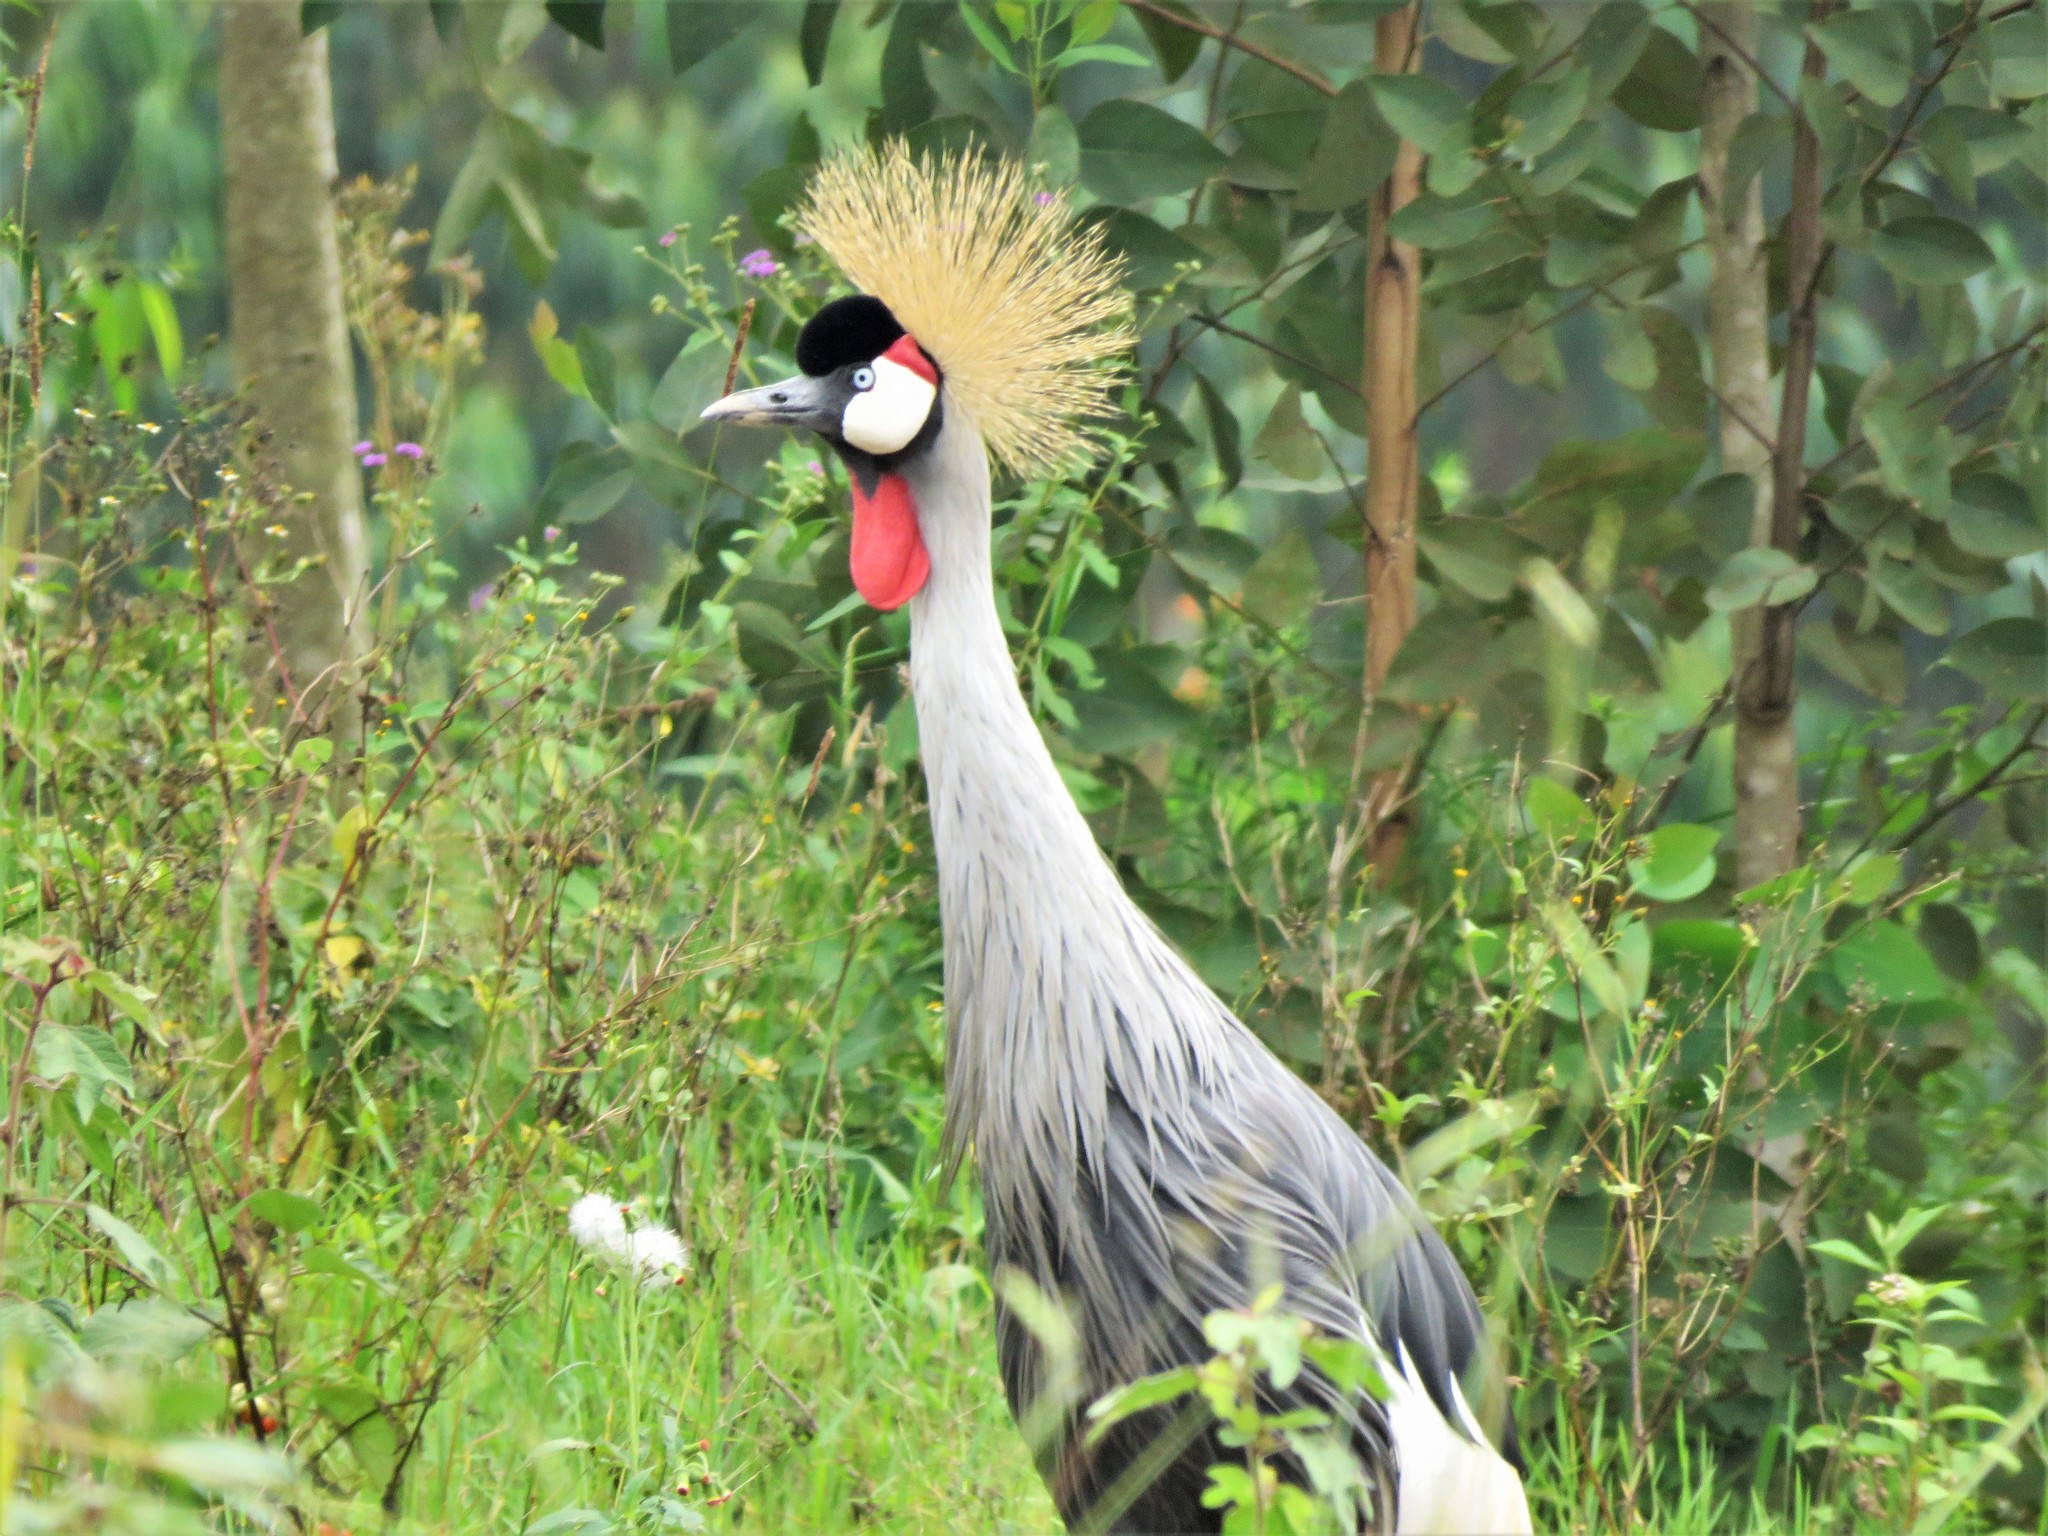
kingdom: Animalia
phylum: Chordata
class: Aves
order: Gruiformes
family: Gruidae
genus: Balearica
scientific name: Balearica regulorum
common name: Grey crowned crane
